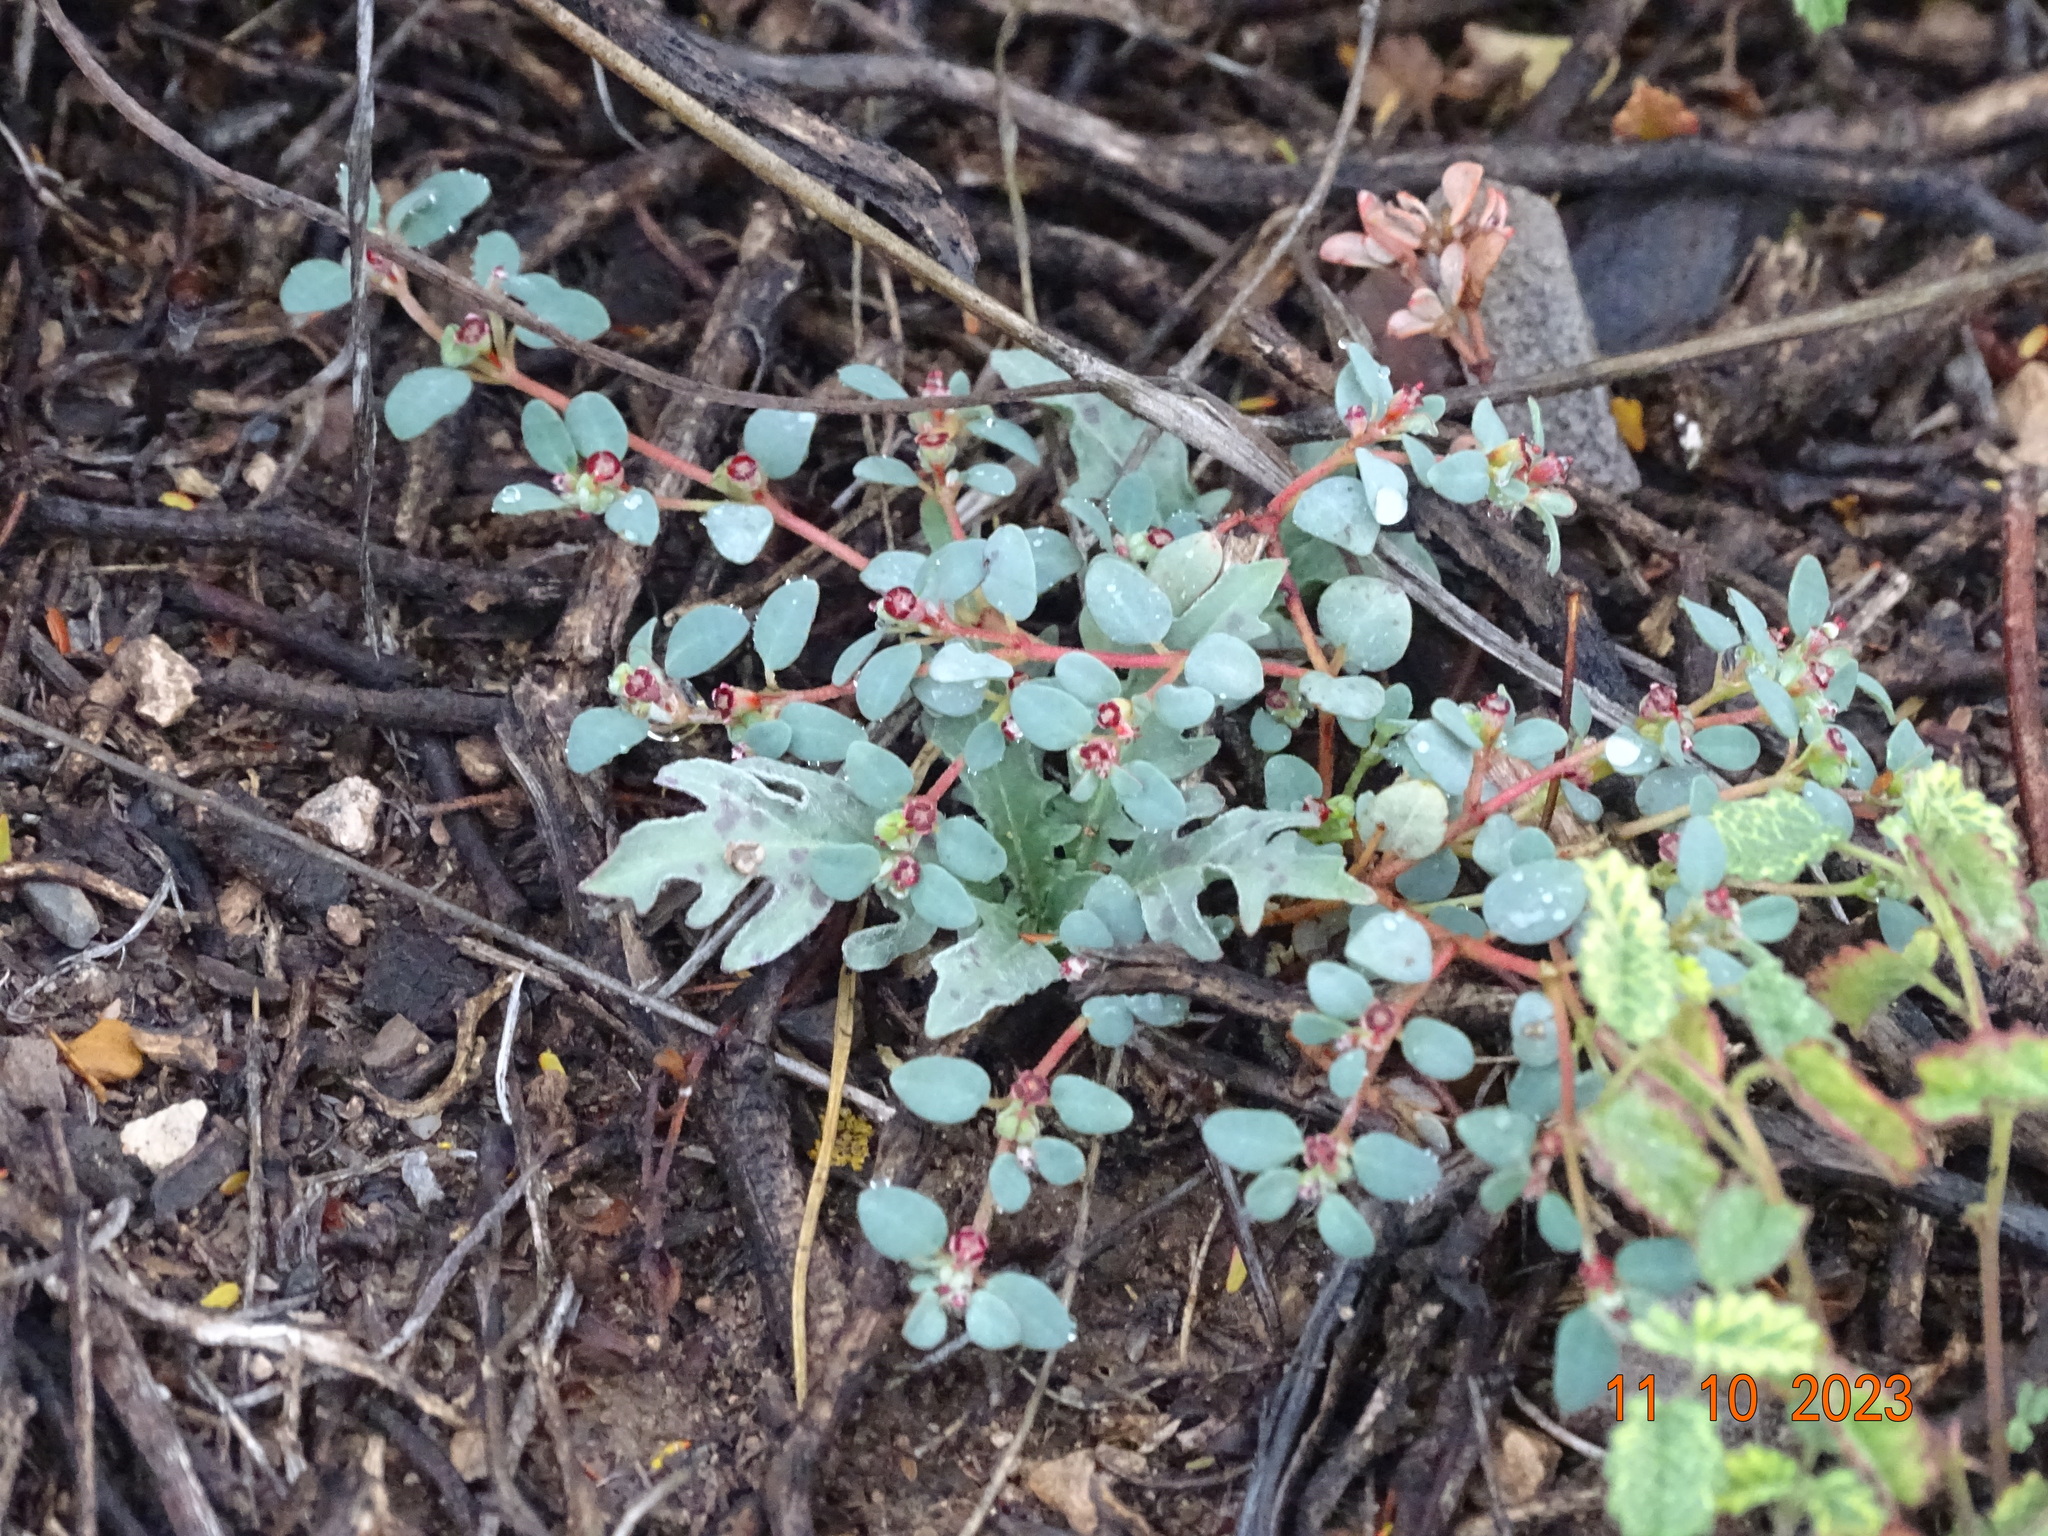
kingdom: Plantae
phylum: Tracheophyta
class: Magnoliopsida
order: Malpighiales
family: Euphorbiaceae
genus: Euphorbia
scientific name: Euphorbia cinerascens
